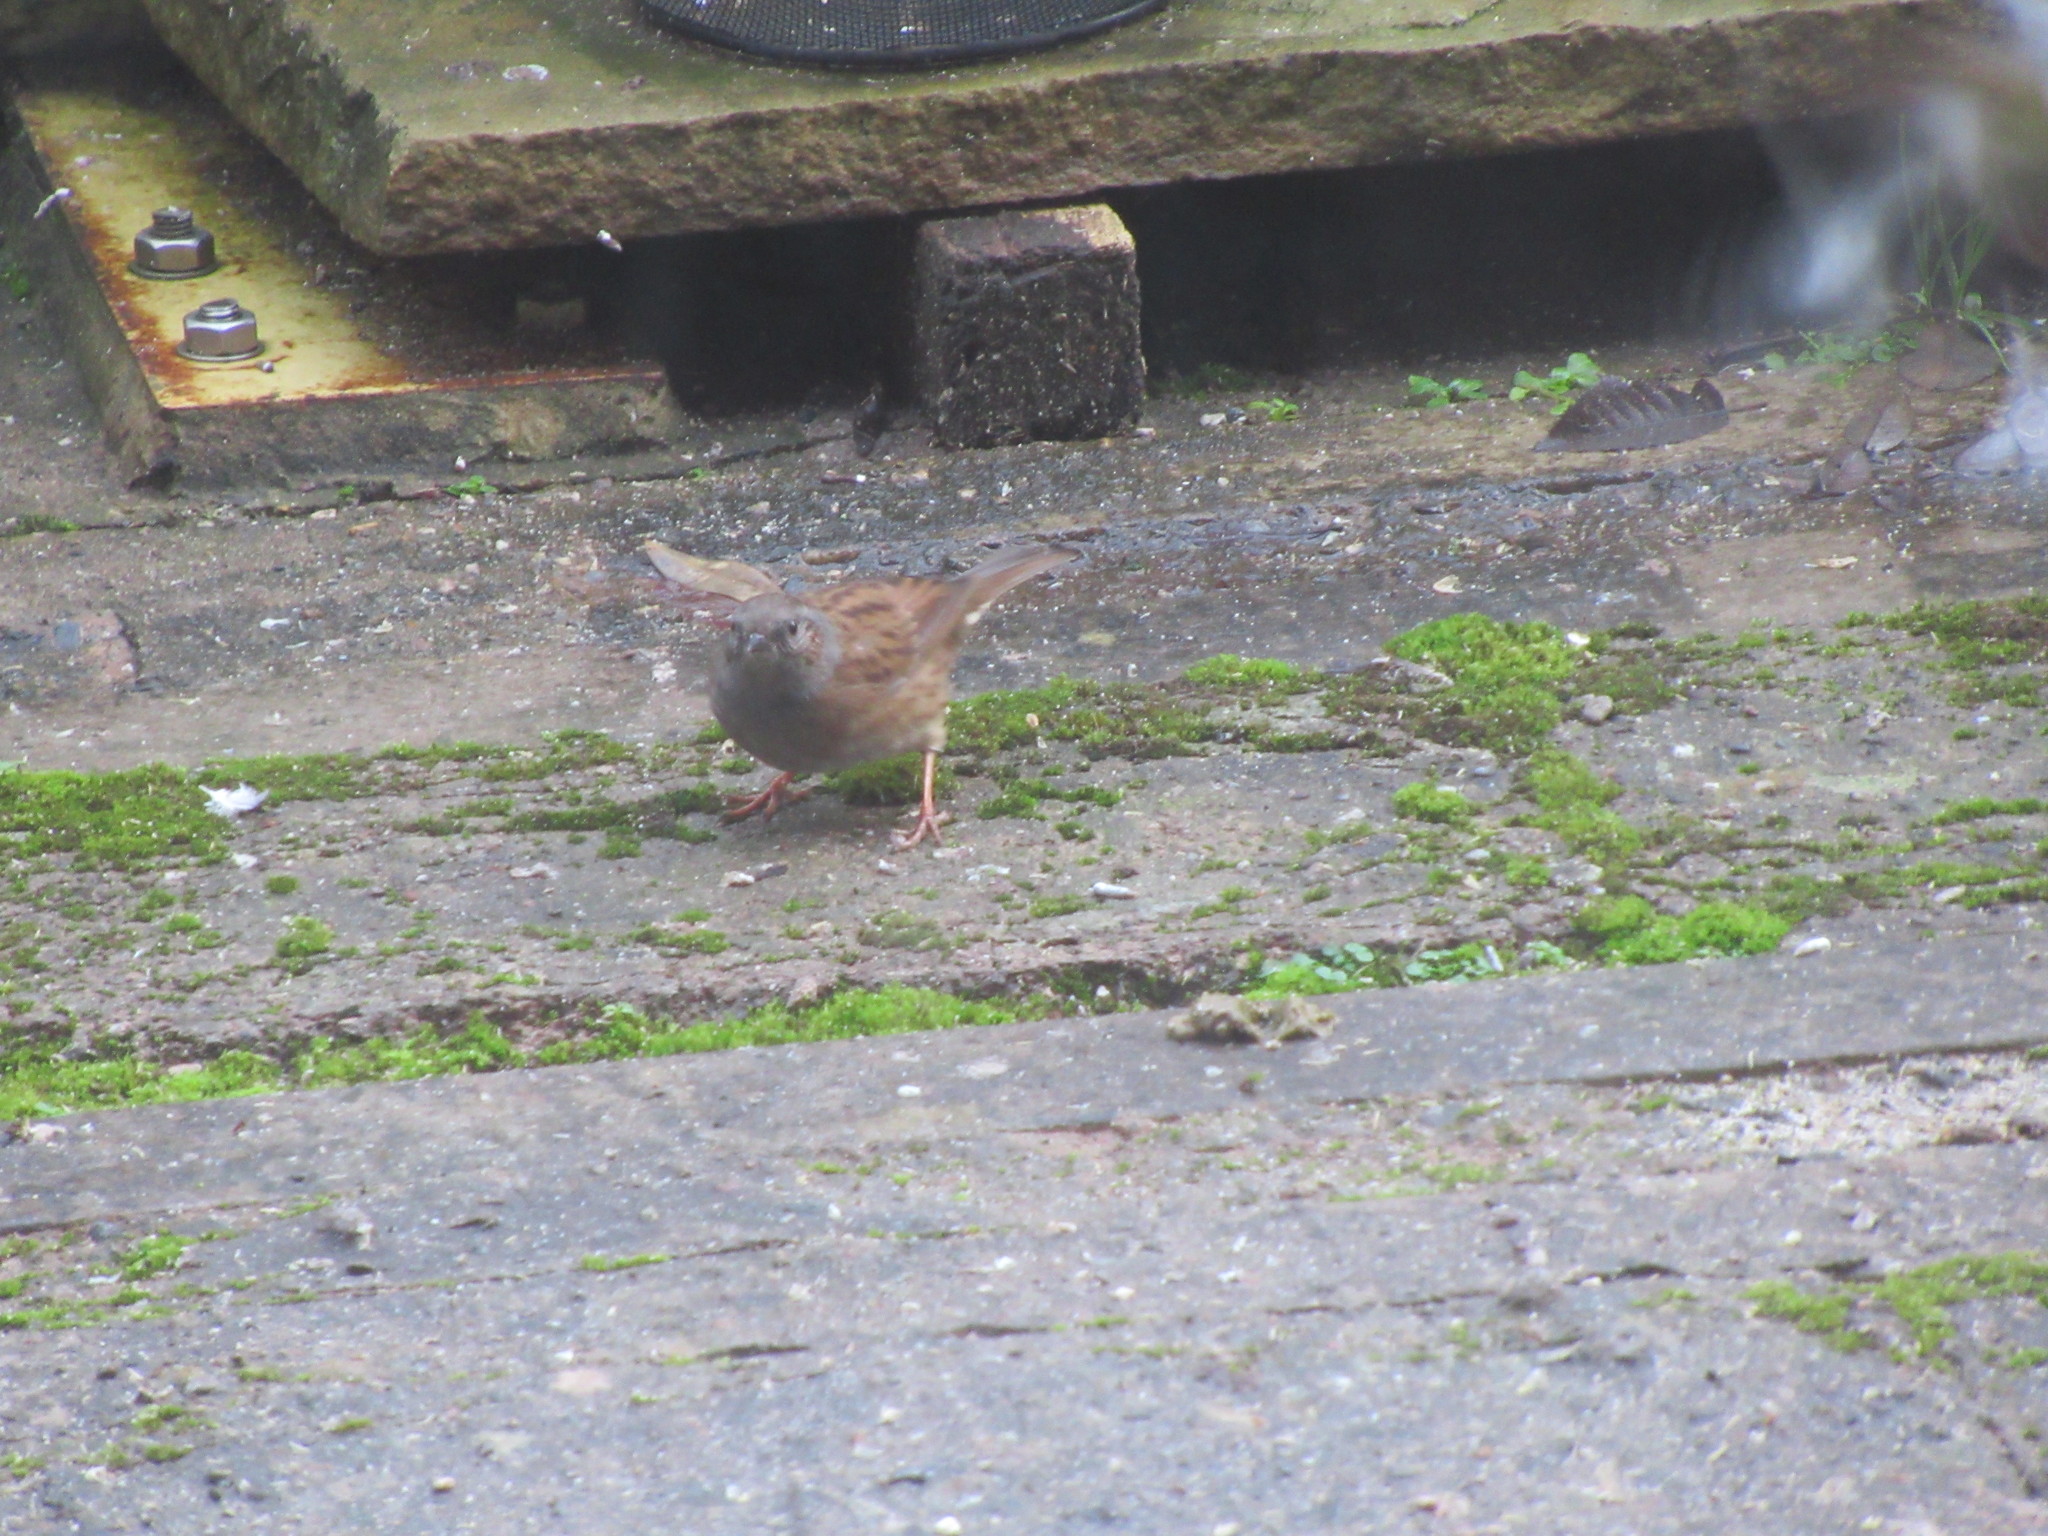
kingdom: Animalia
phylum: Chordata
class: Aves
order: Passeriformes
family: Prunellidae
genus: Prunella
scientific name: Prunella modularis
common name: Dunnock
